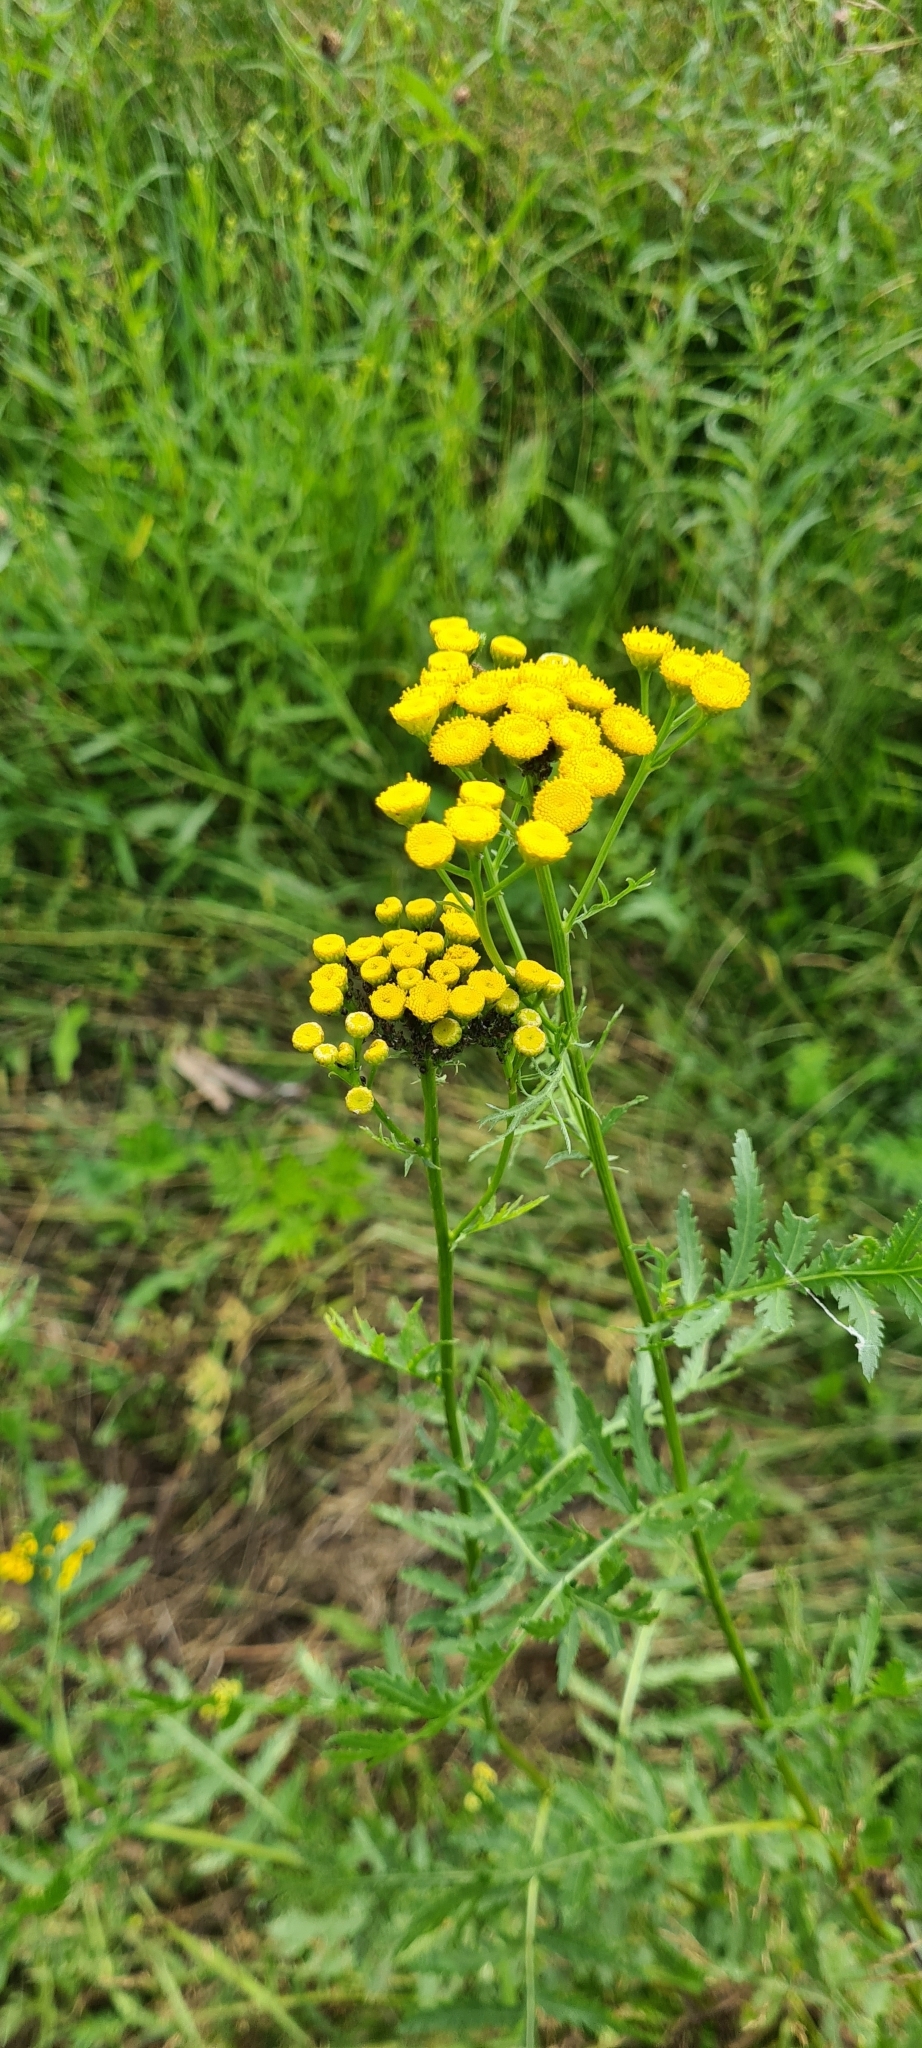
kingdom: Plantae
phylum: Tracheophyta
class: Magnoliopsida
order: Asterales
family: Asteraceae
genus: Tanacetum
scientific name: Tanacetum vulgare
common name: Common tansy
